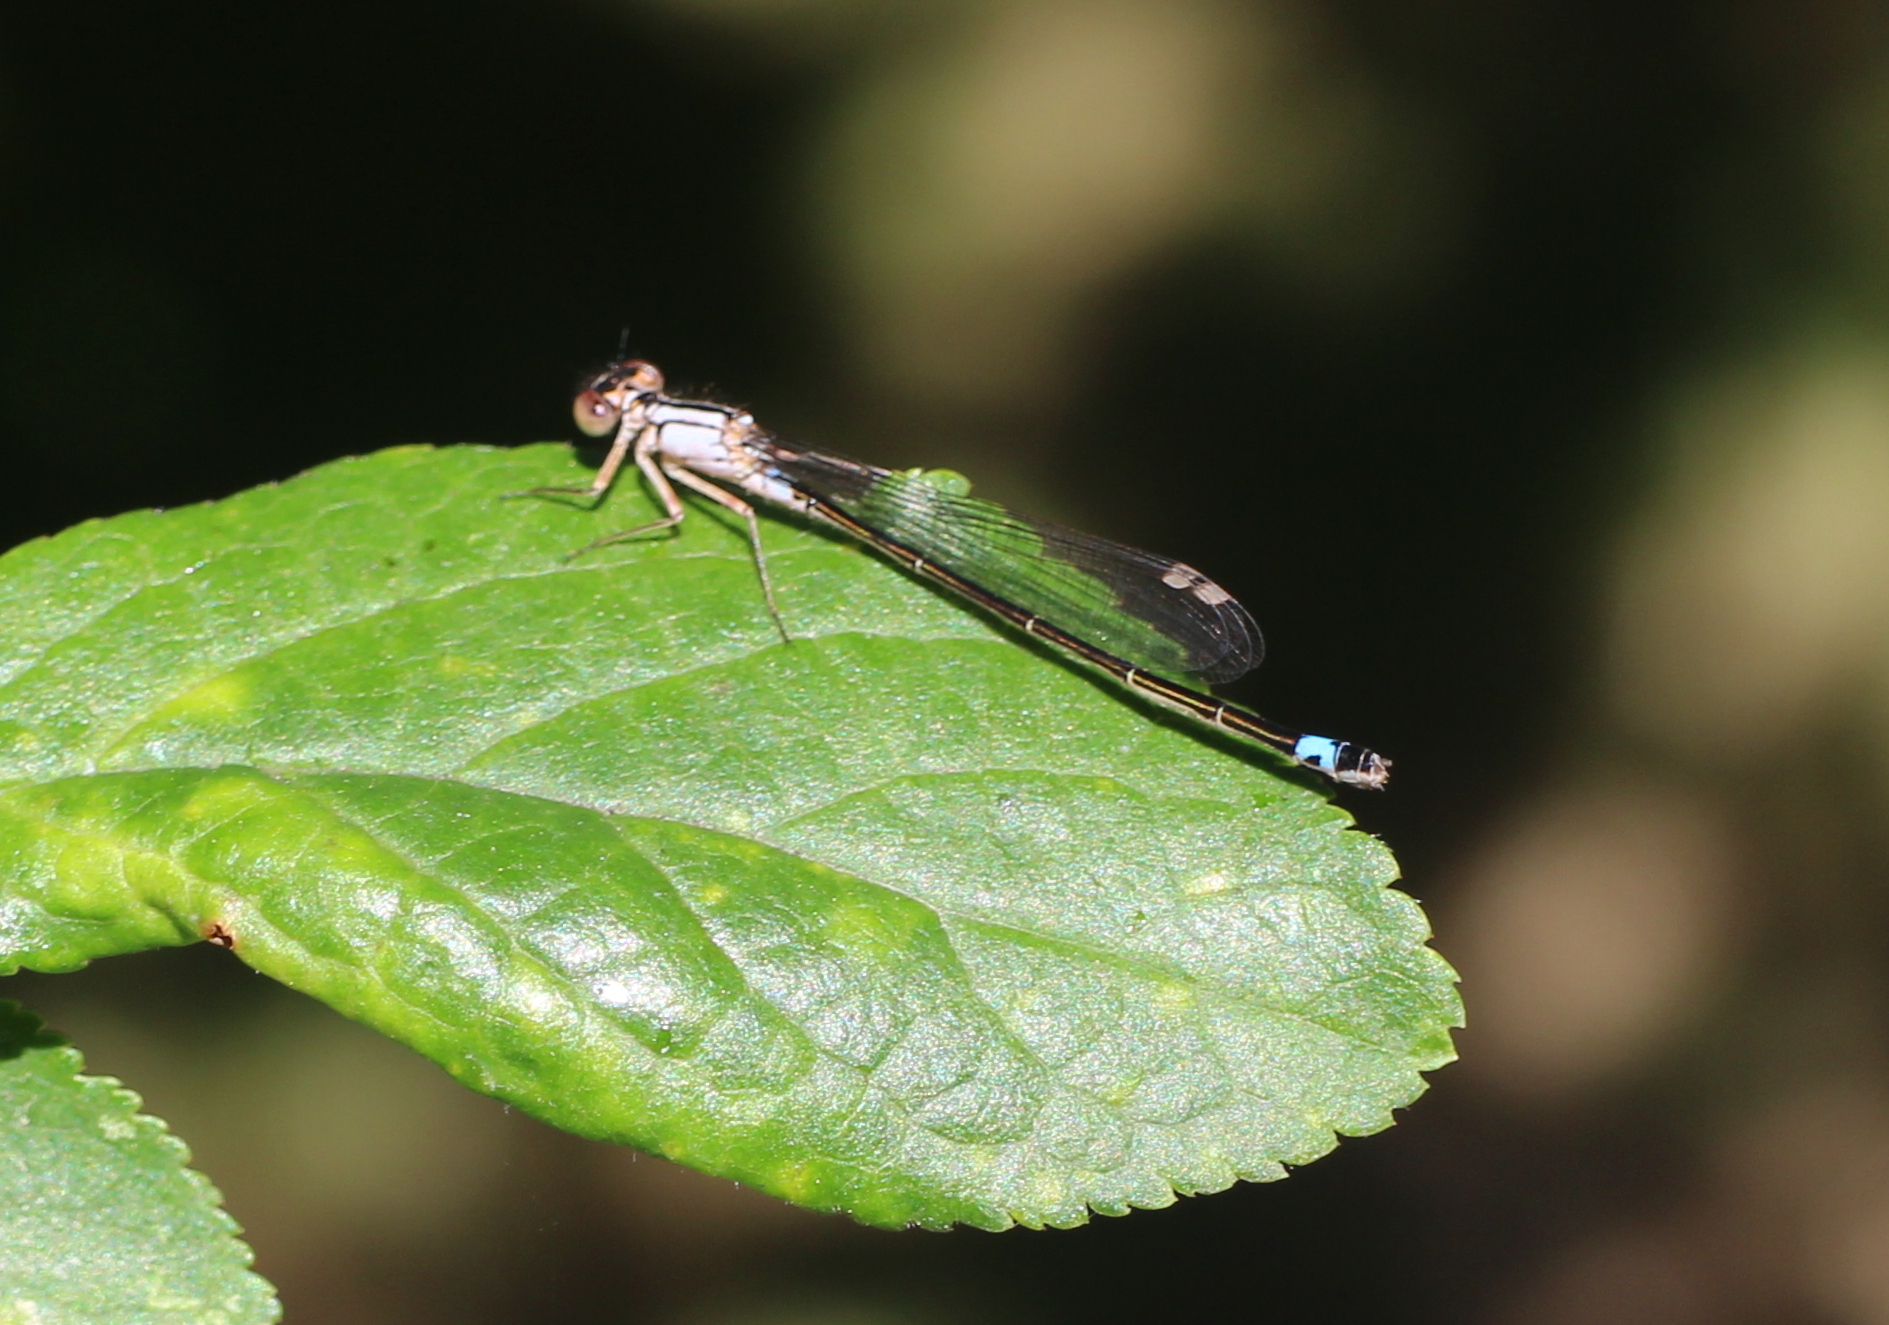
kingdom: Animalia
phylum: Arthropoda
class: Insecta
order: Odonata
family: Coenagrionidae
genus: Ischnura
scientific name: Ischnura cervula
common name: Pacific forktail
